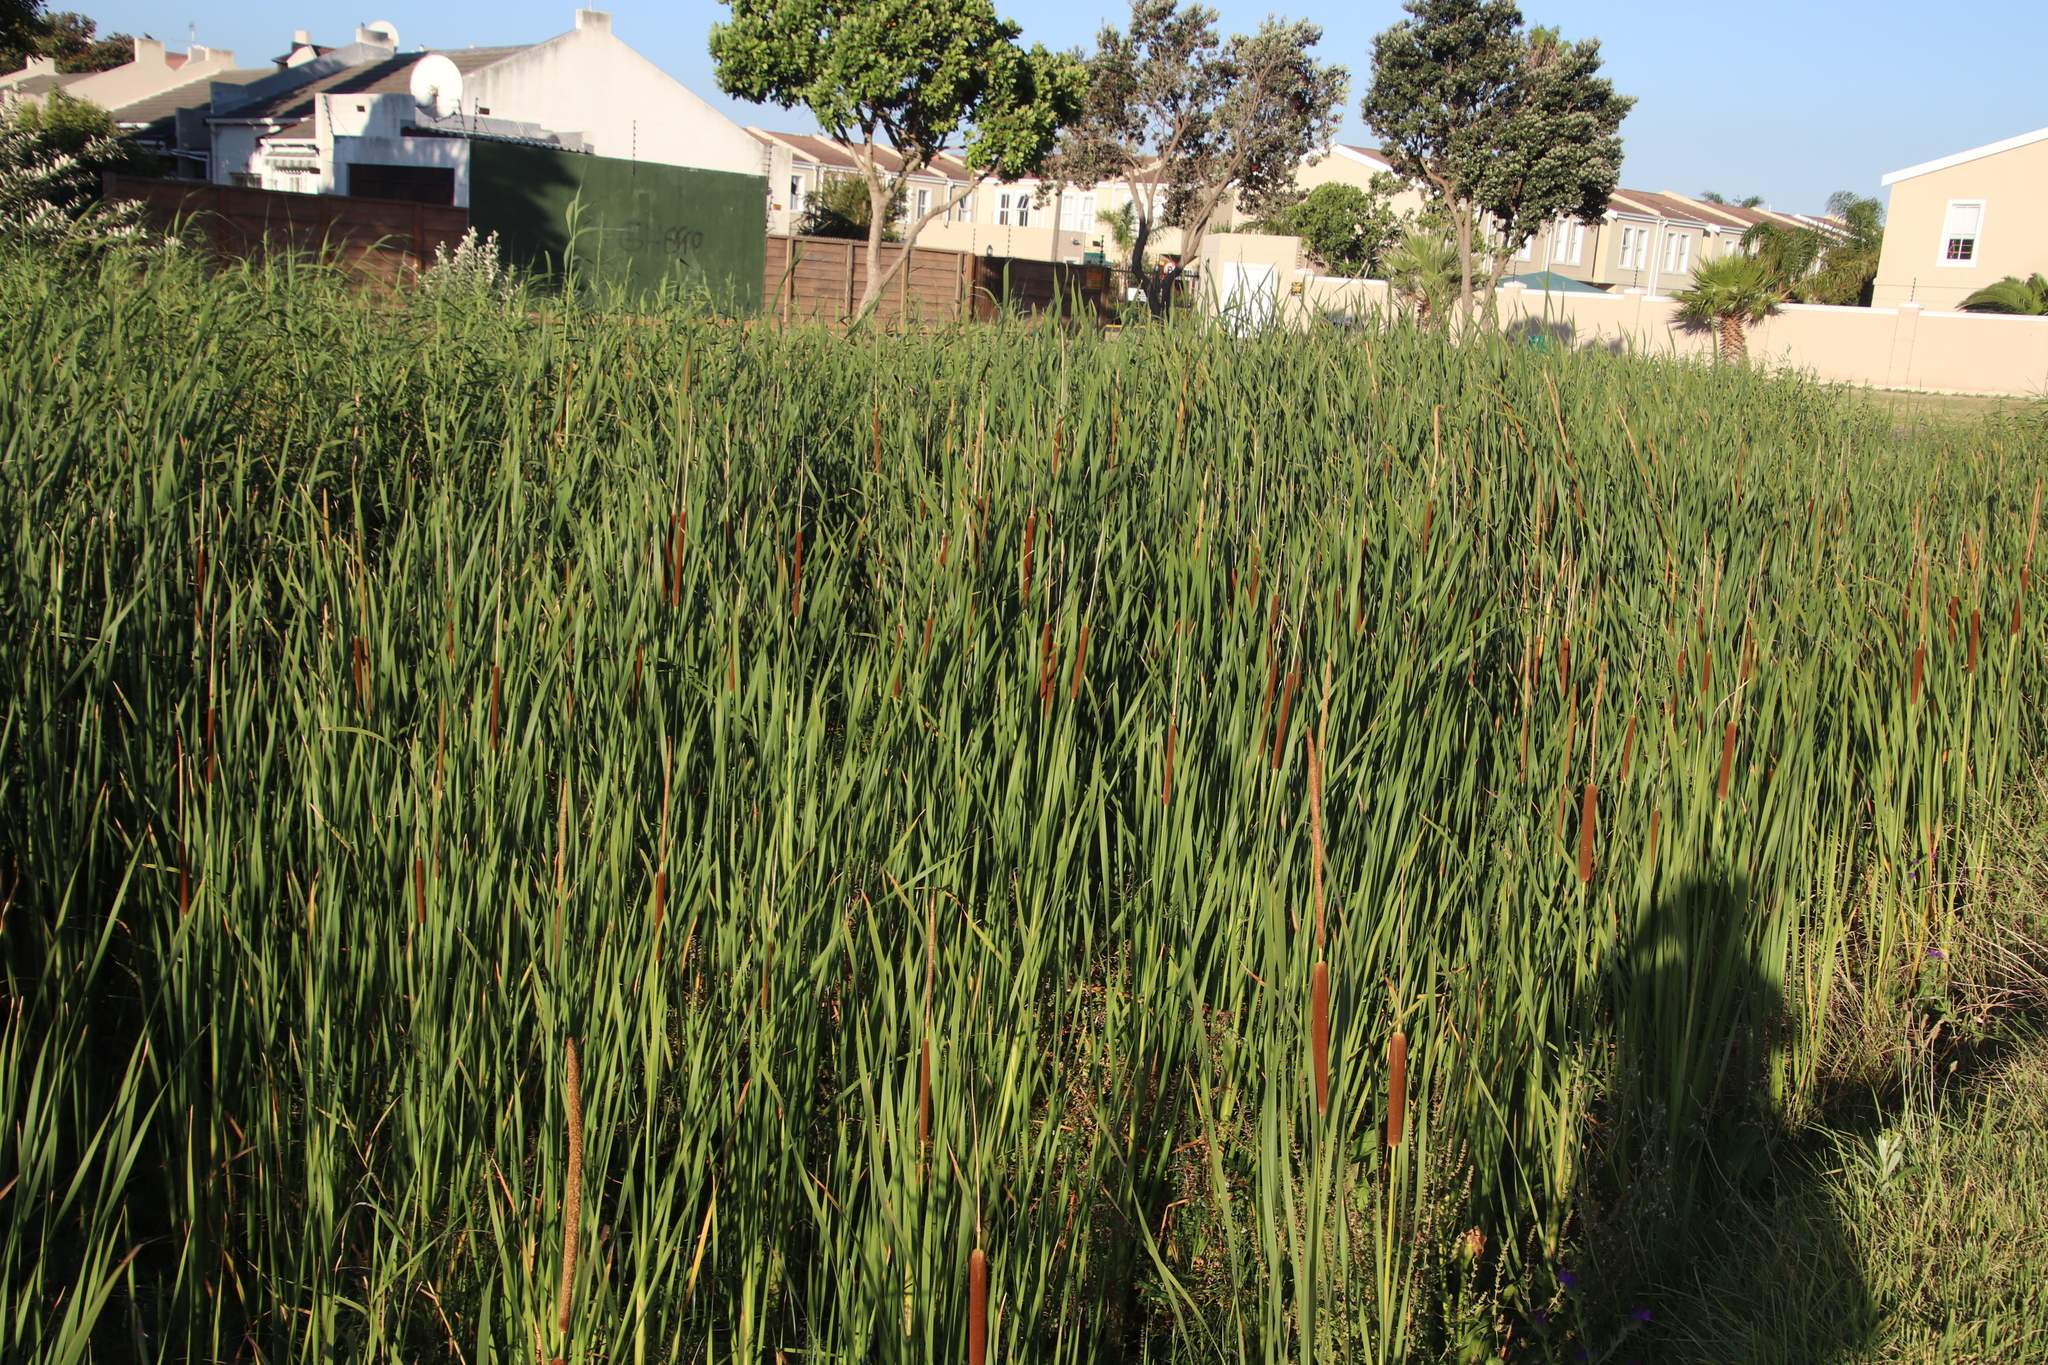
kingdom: Plantae
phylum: Tracheophyta
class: Liliopsida
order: Poales
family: Typhaceae
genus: Typha
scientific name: Typha capensis
